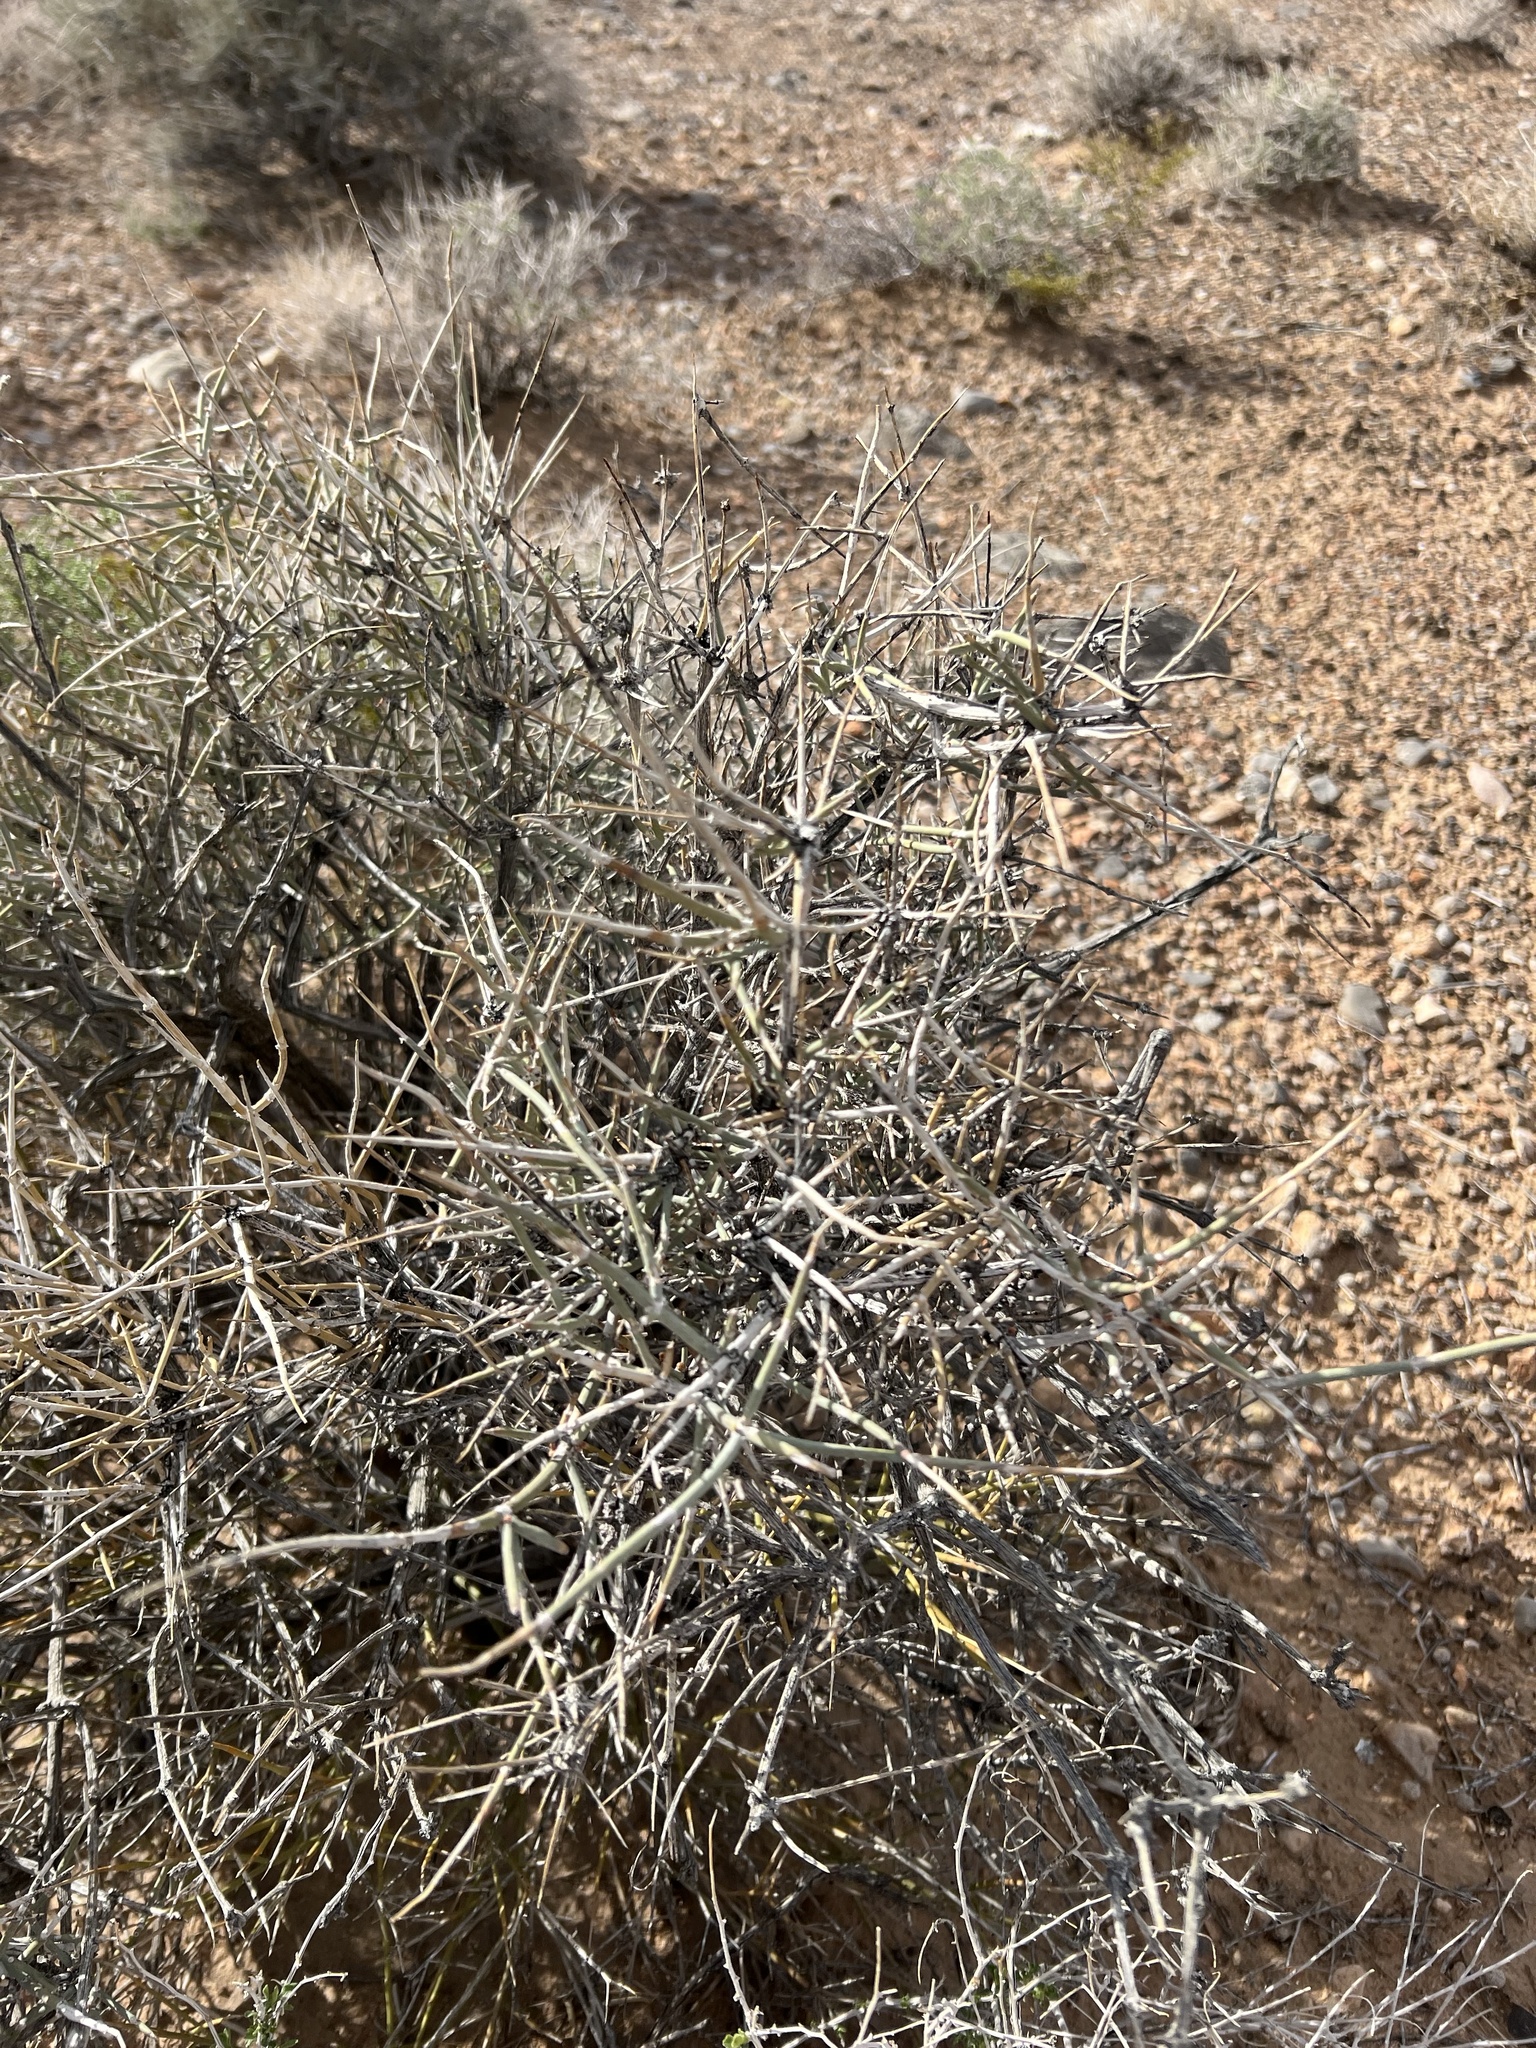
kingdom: Plantae
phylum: Tracheophyta
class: Gnetopsida
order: Ephedrales
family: Ephedraceae
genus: Ephedra
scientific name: Ephedra nevadensis
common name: Gray ephedra
